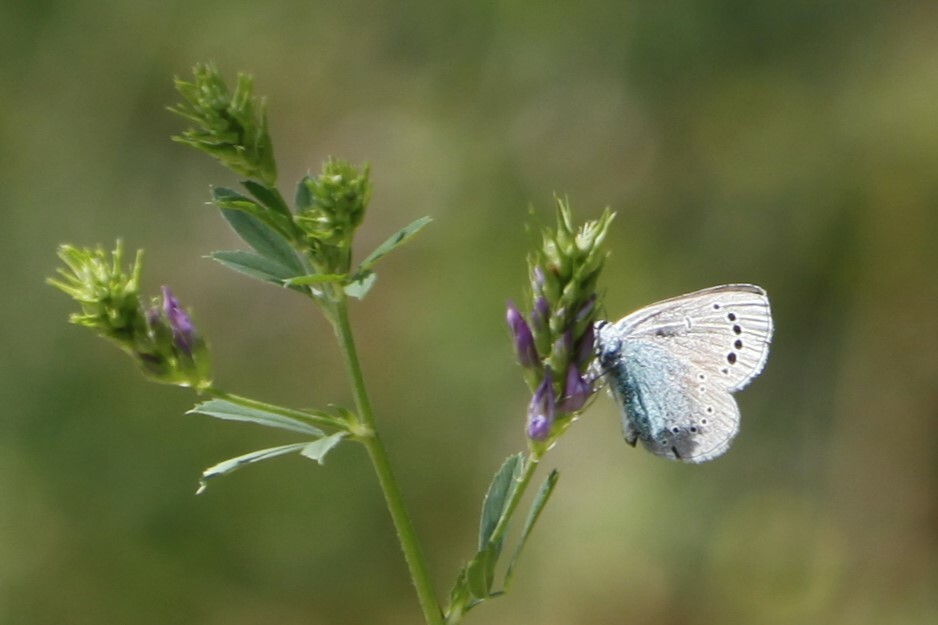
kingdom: Animalia
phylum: Arthropoda
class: Insecta
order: Lepidoptera
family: Lycaenidae
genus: Glaucopsyche
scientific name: Glaucopsyche alexis
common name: Green-underside blue
